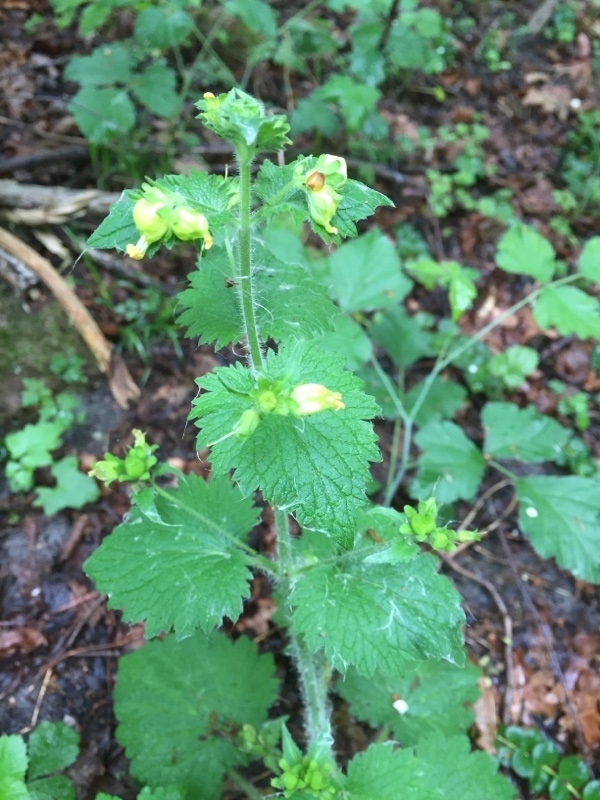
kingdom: Plantae
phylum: Tracheophyta
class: Magnoliopsida
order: Lamiales
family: Scrophulariaceae
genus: Scrophularia
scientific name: Scrophularia vernalis
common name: Yellow figwort
